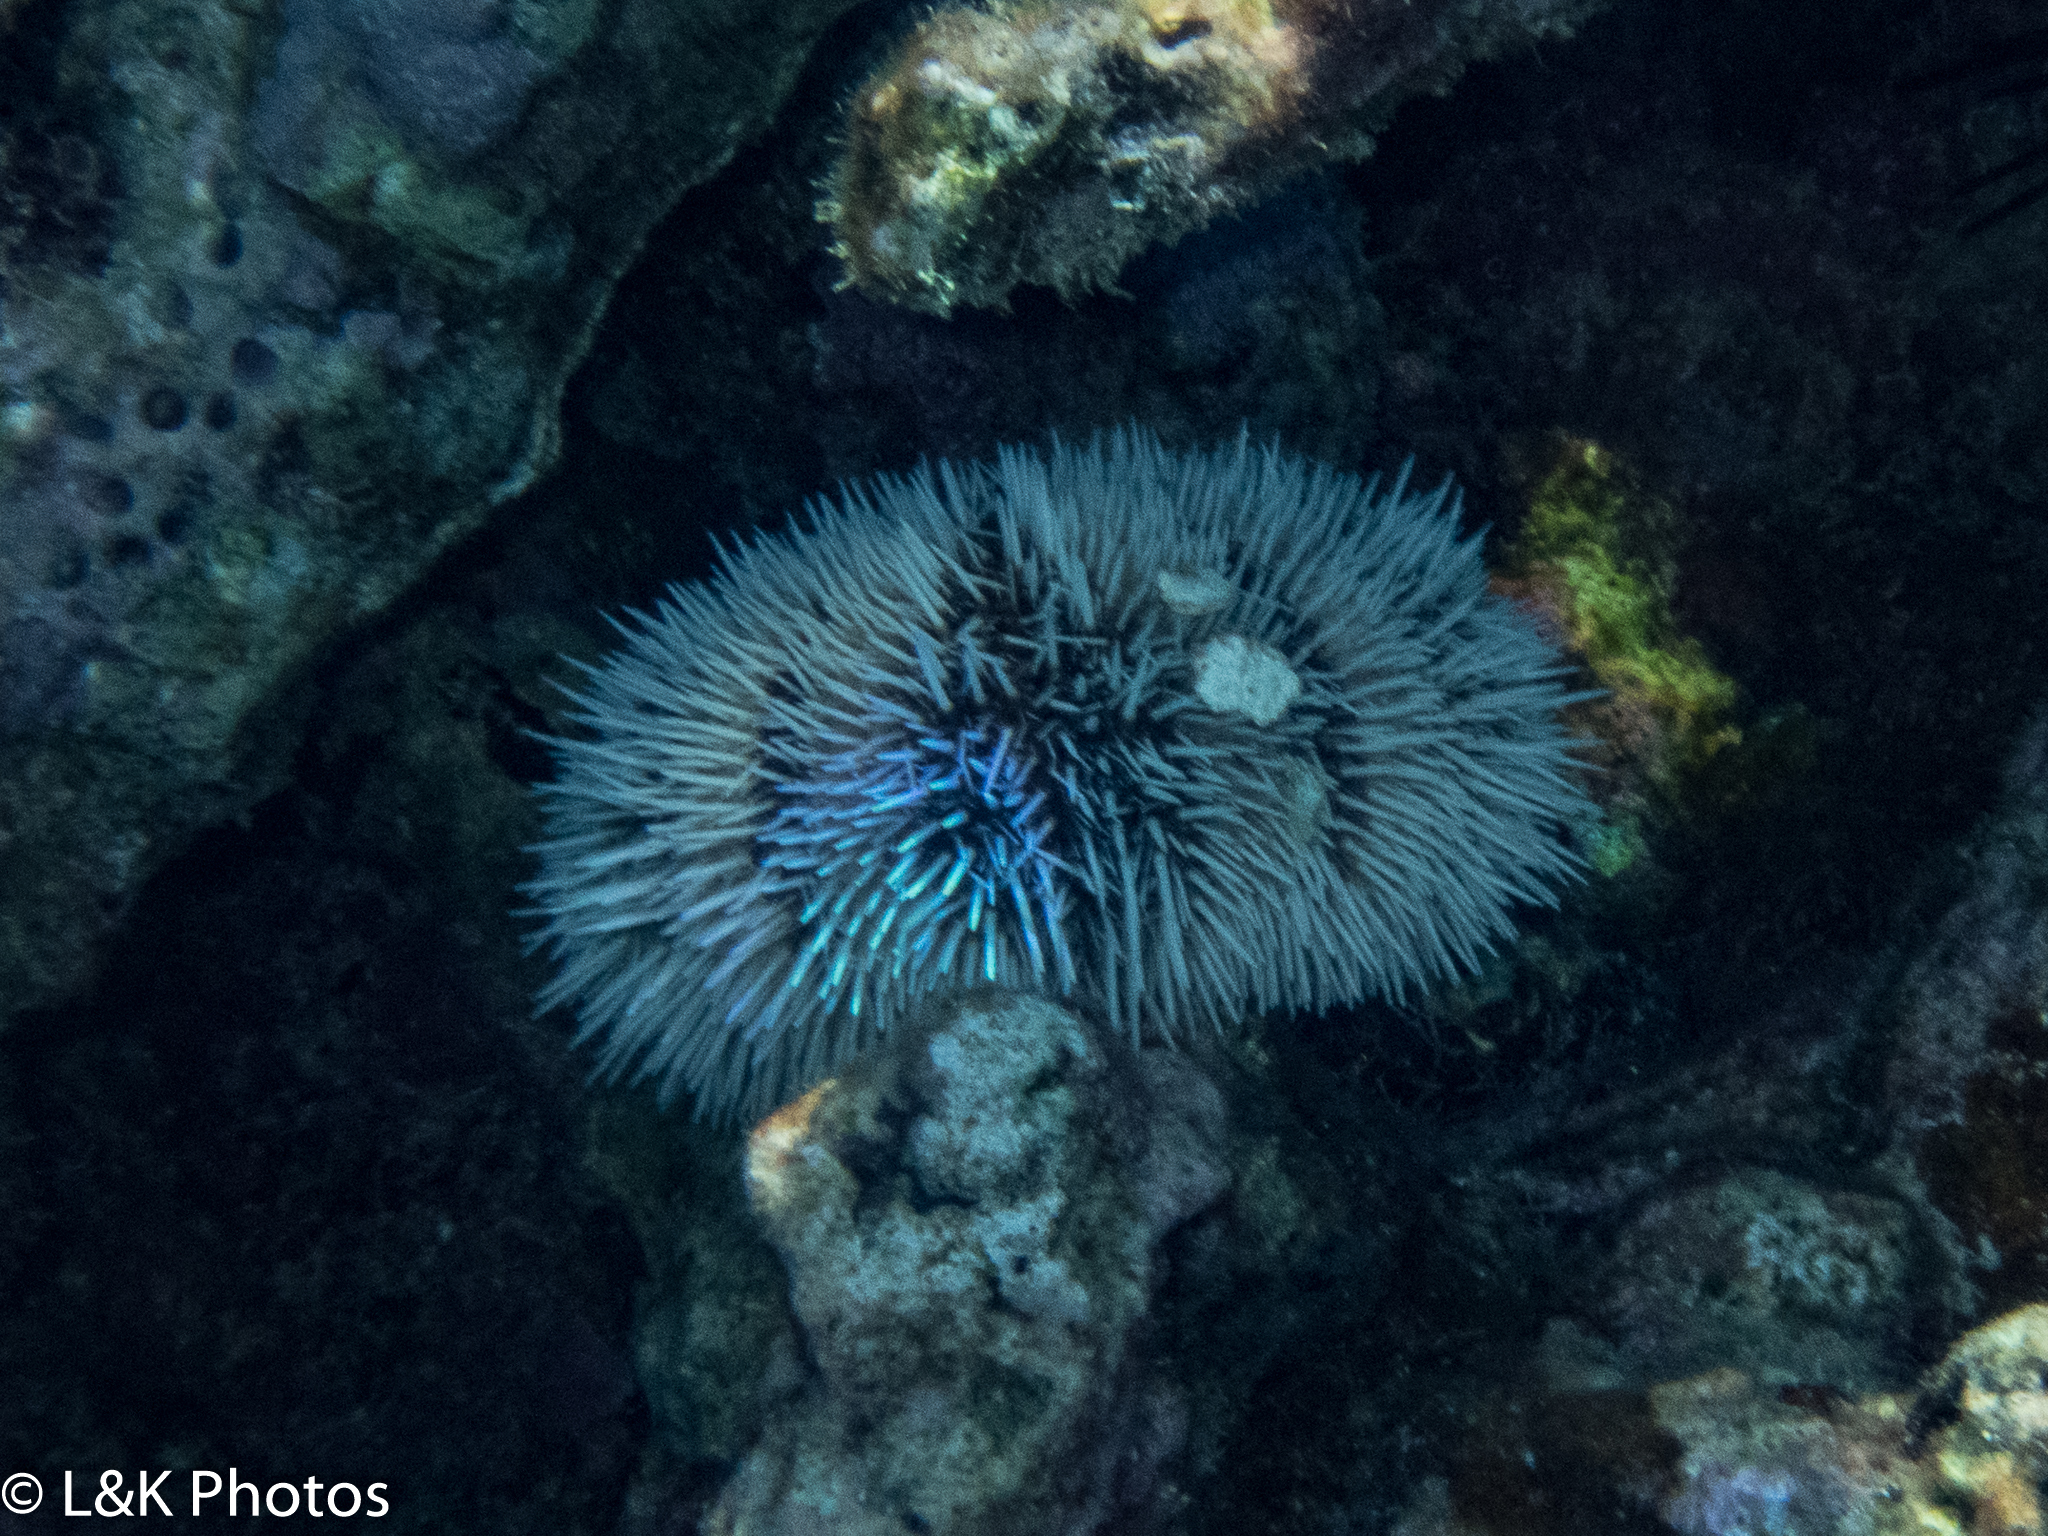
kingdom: Animalia
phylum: Echinodermata
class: Echinoidea
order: Camarodonta
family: Toxopneustidae
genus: Tripneustes
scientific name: Tripneustes ventricosus
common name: West indian sea egg
